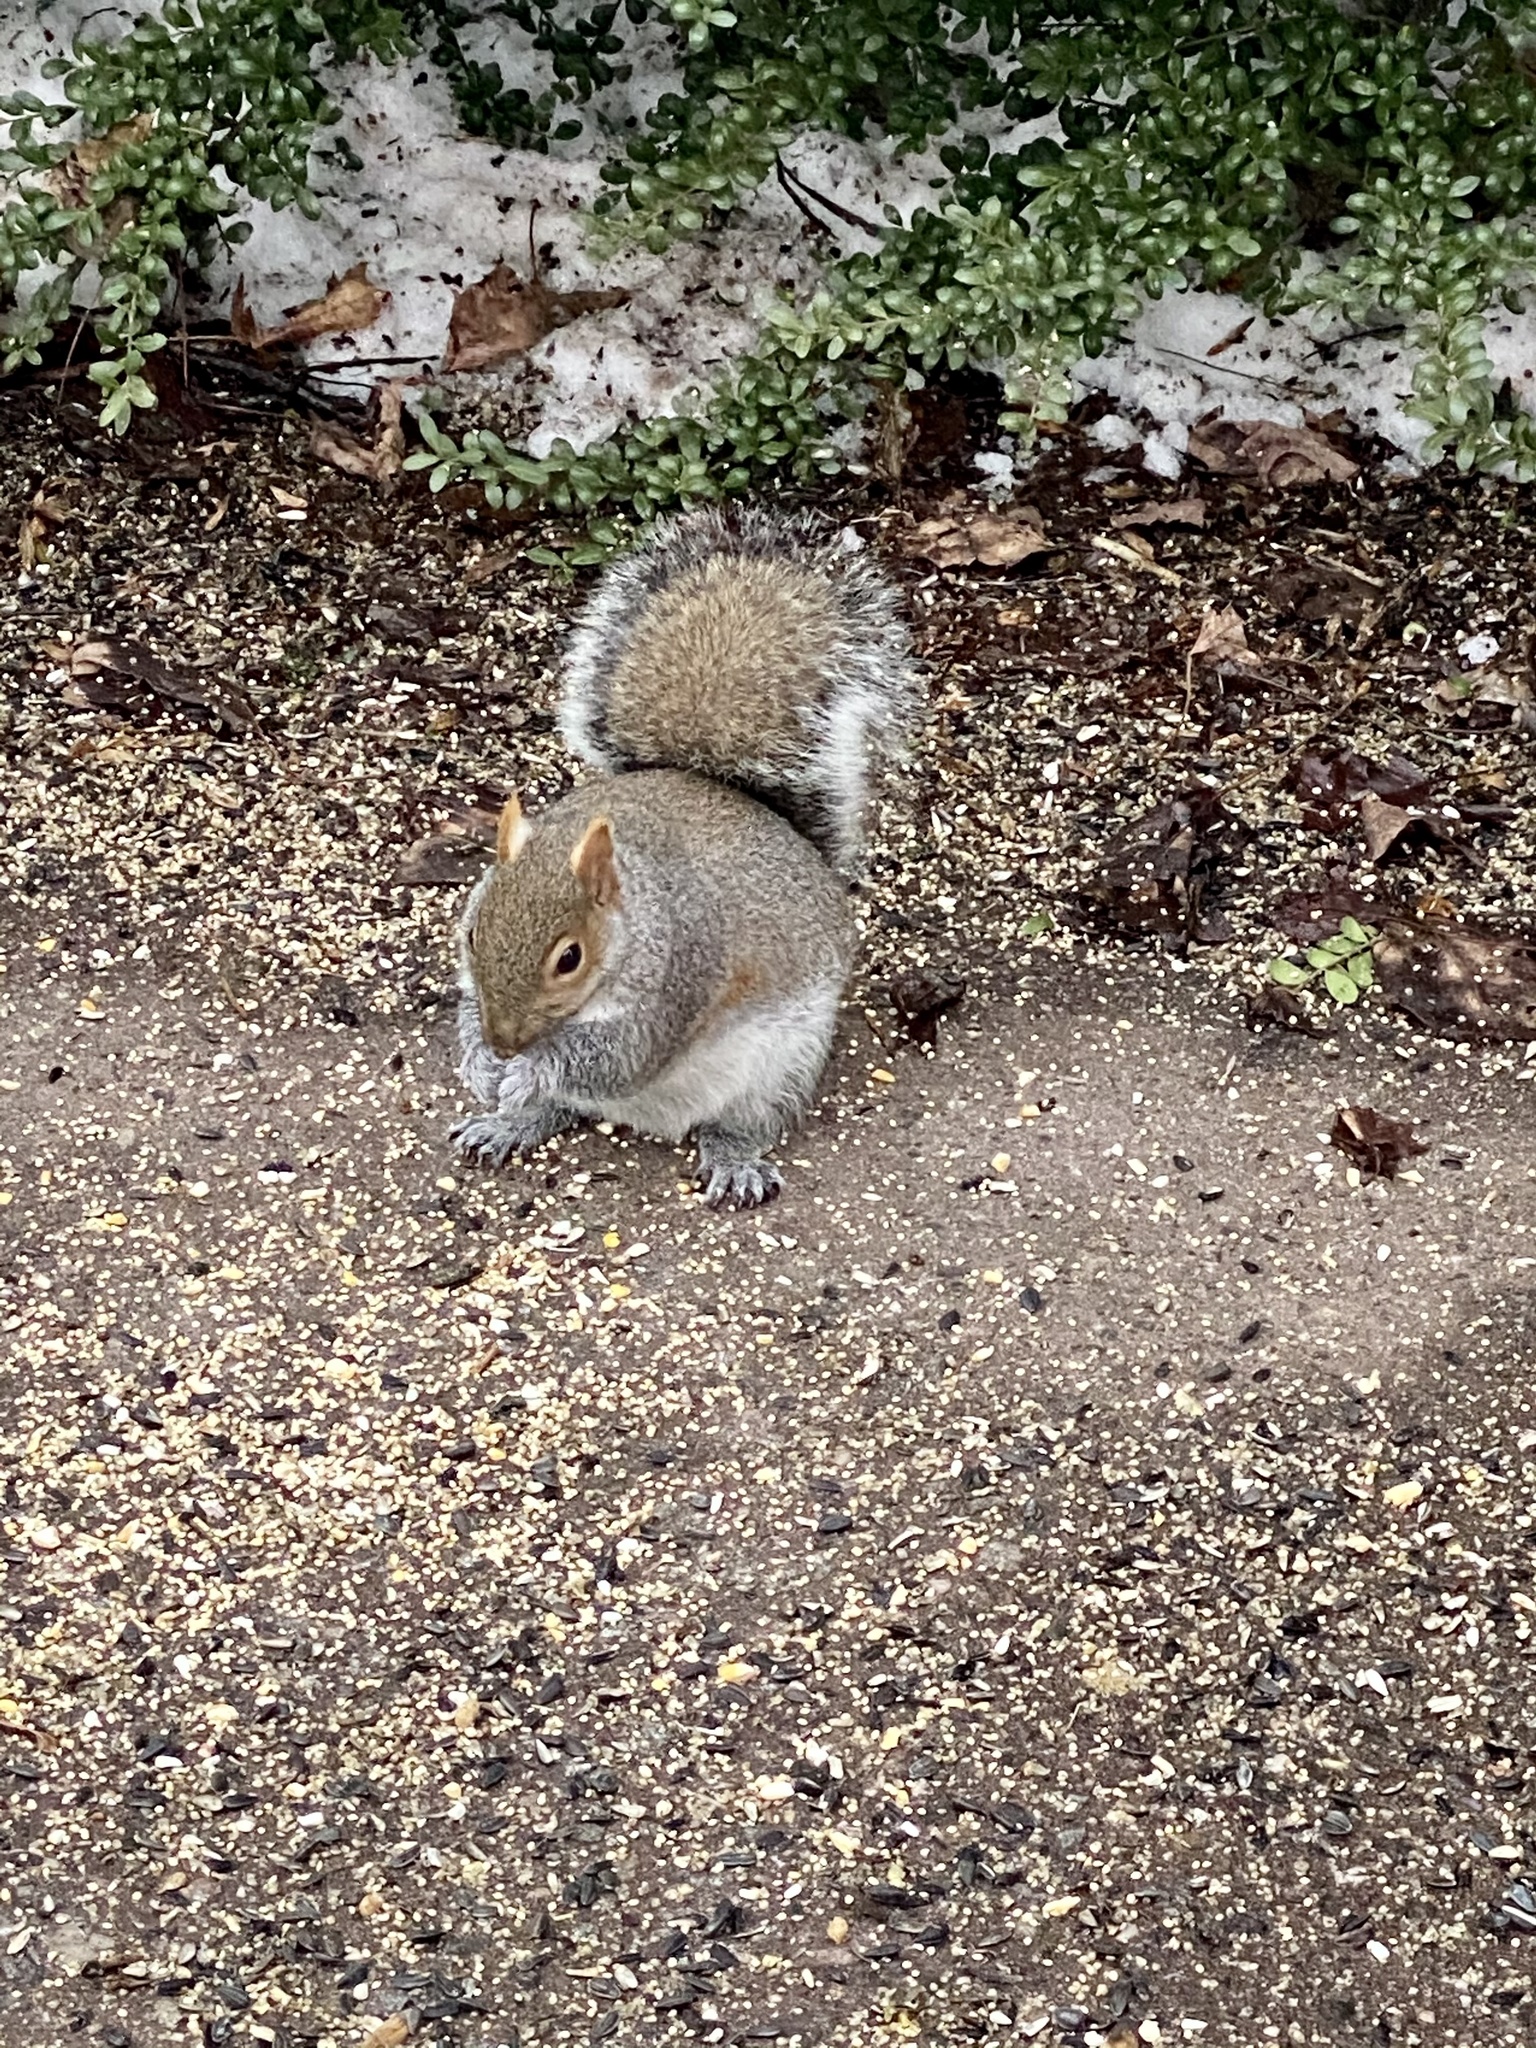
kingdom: Animalia
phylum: Chordata
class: Mammalia
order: Rodentia
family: Sciuridae
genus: Sciurus
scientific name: Sciurus carolinensis
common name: Eastern gray squirrel
